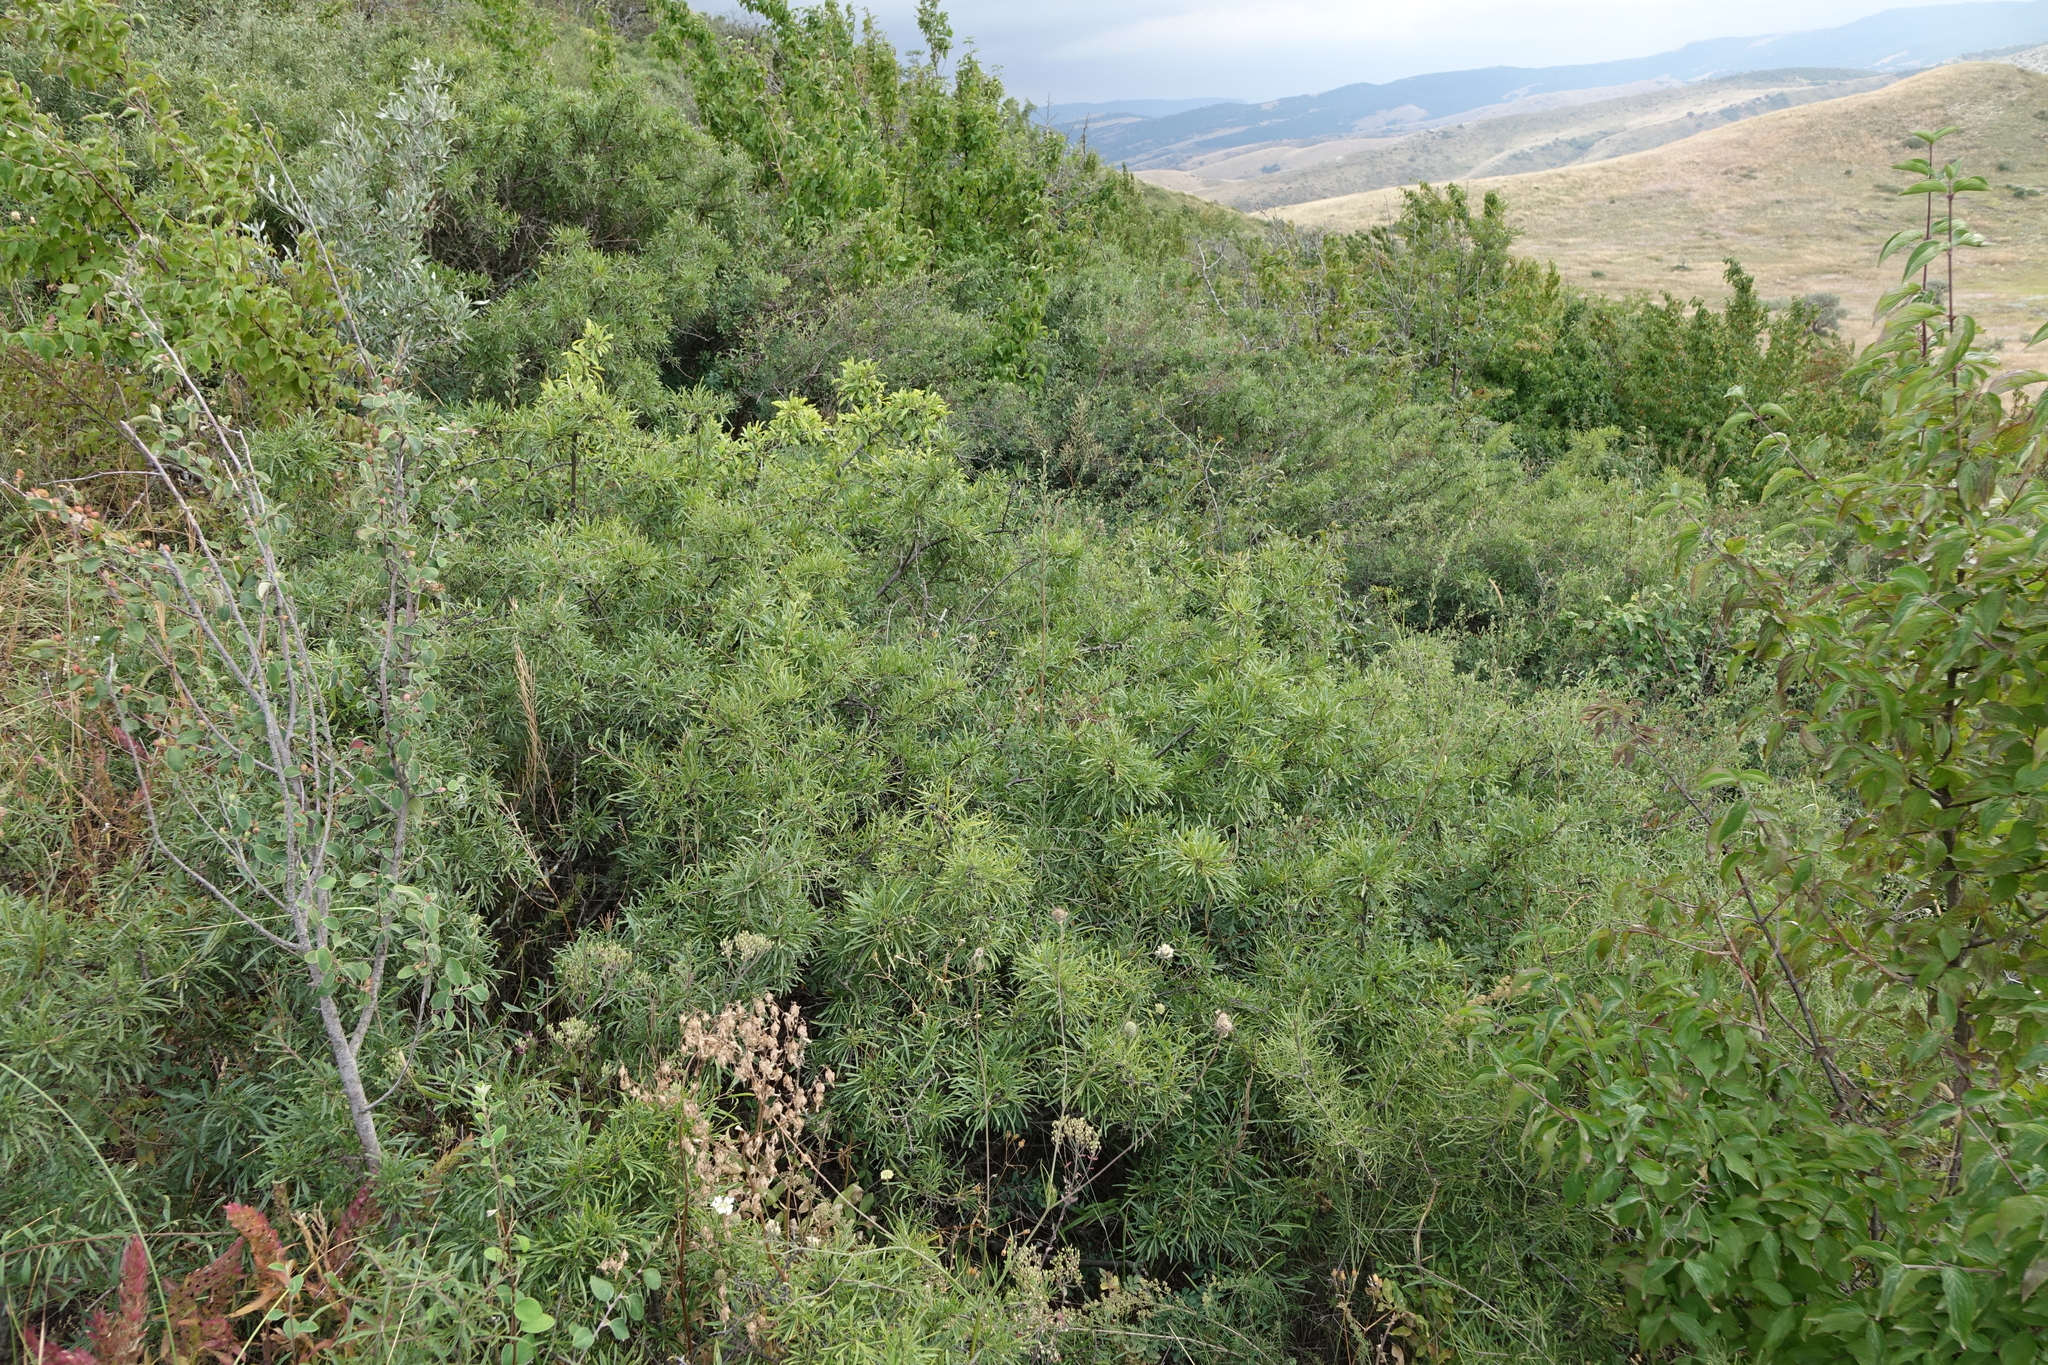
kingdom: Plantae
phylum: Tracheophyta
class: Magnoliopsida
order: Rosales
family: Rhamnaceae
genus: Rhamnus
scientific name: Rhamnus erythroxyloides
